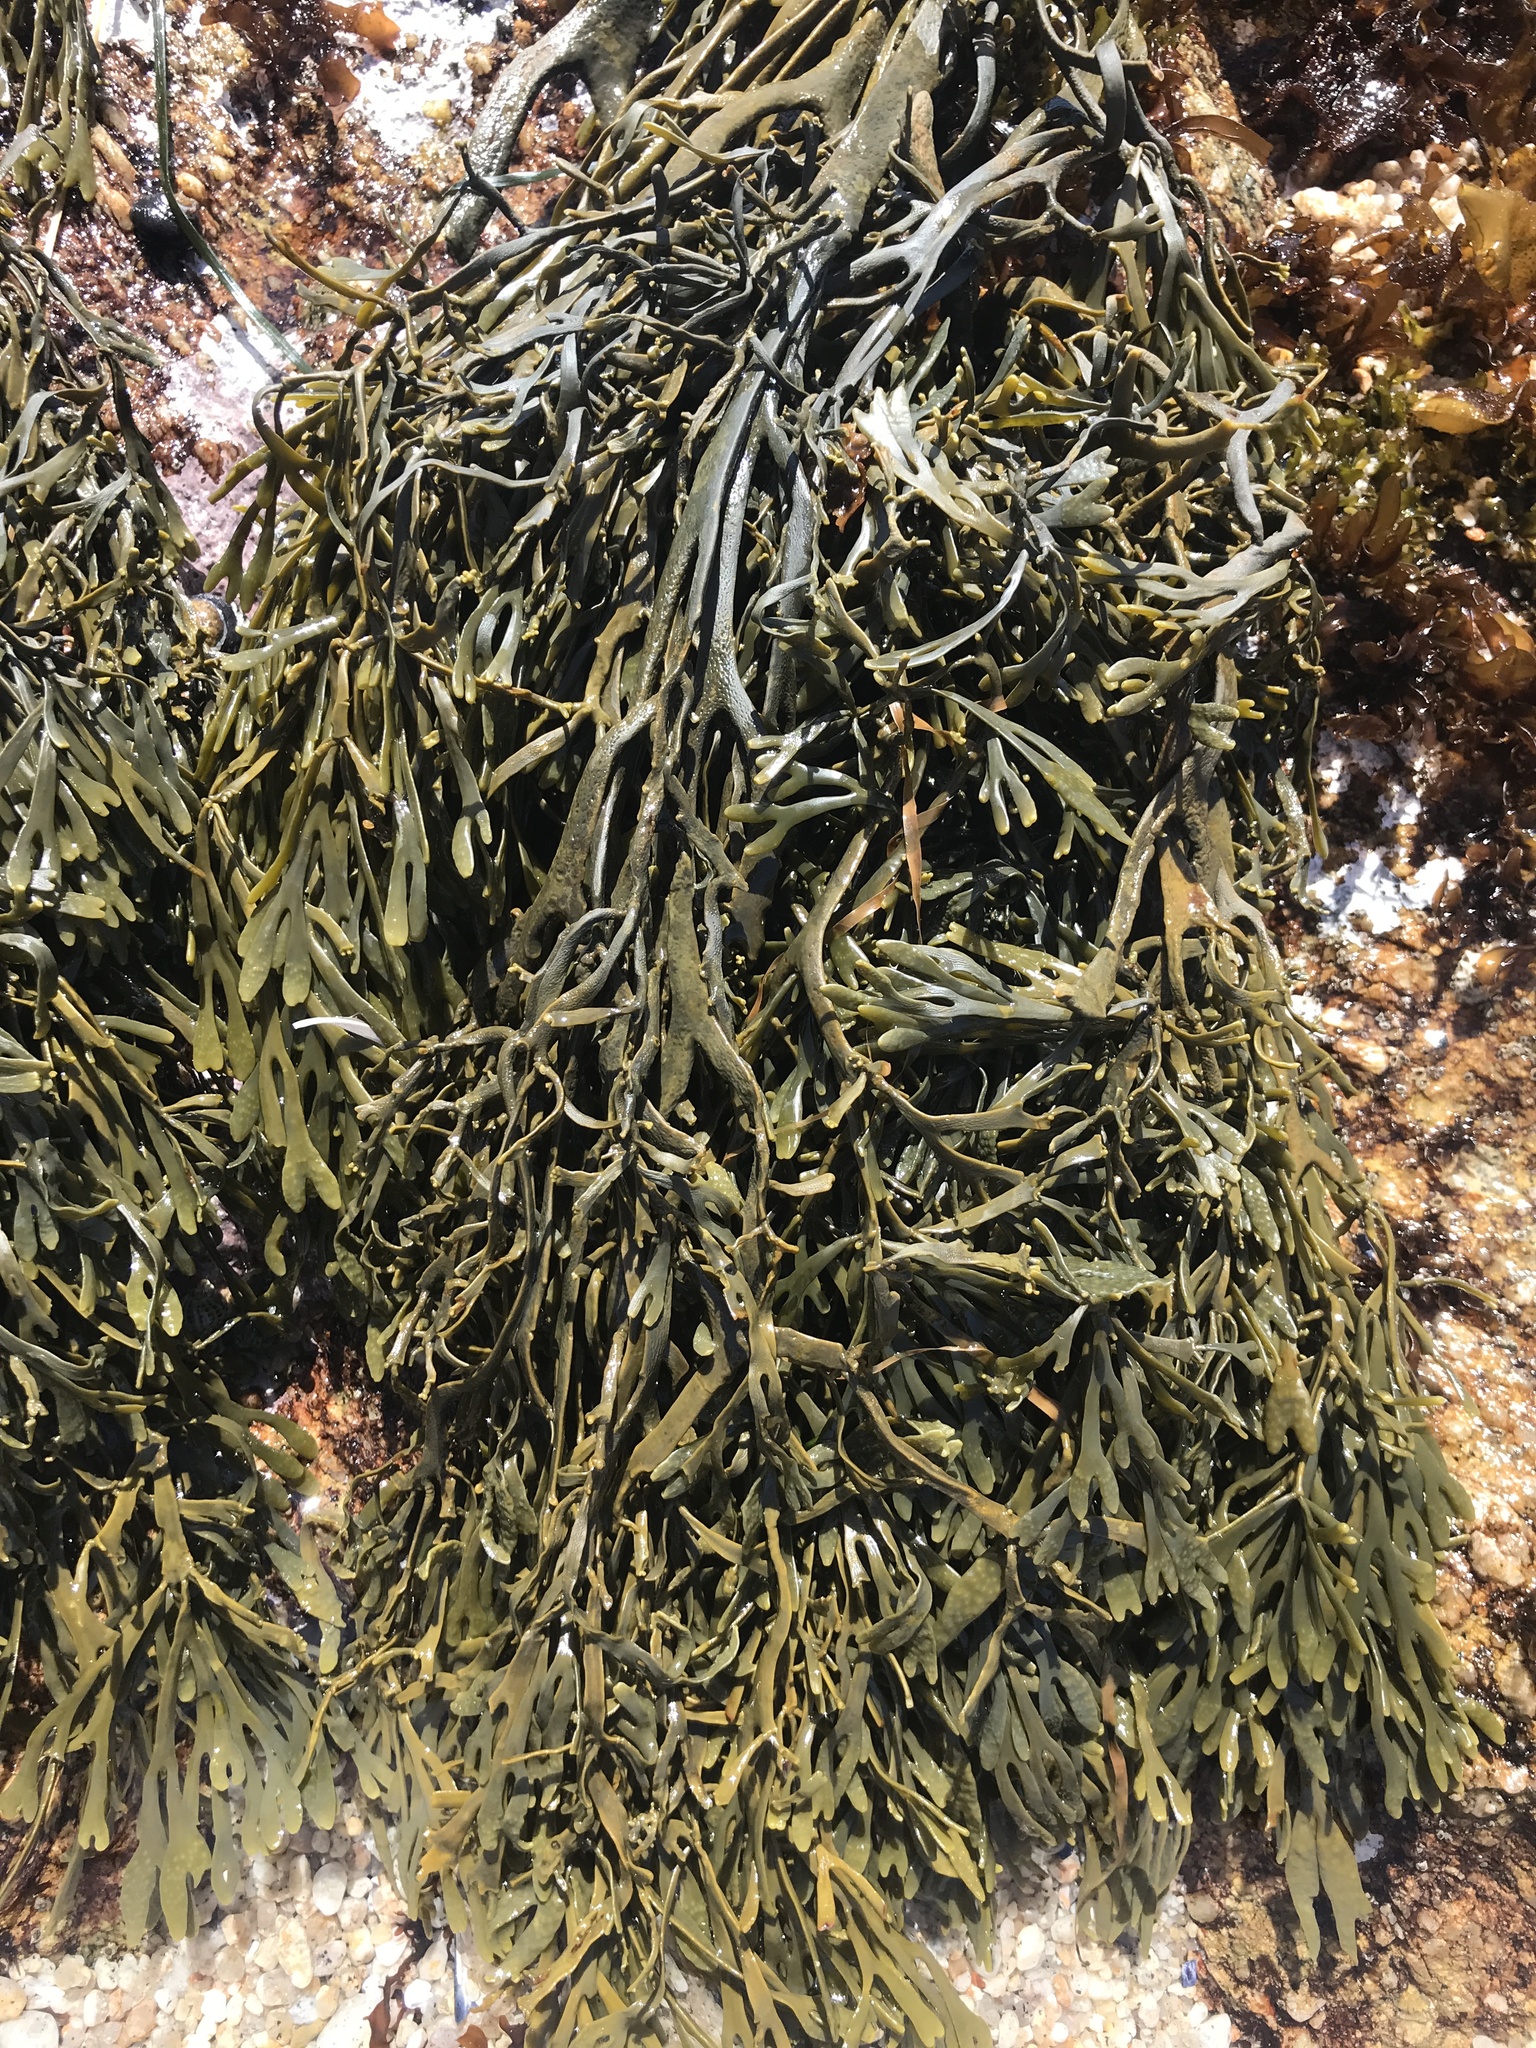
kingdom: Chromista
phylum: Ochrophyta
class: Phaeophyceae
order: Fucales
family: Fucaceae
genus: Silvetia
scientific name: Silvetia
